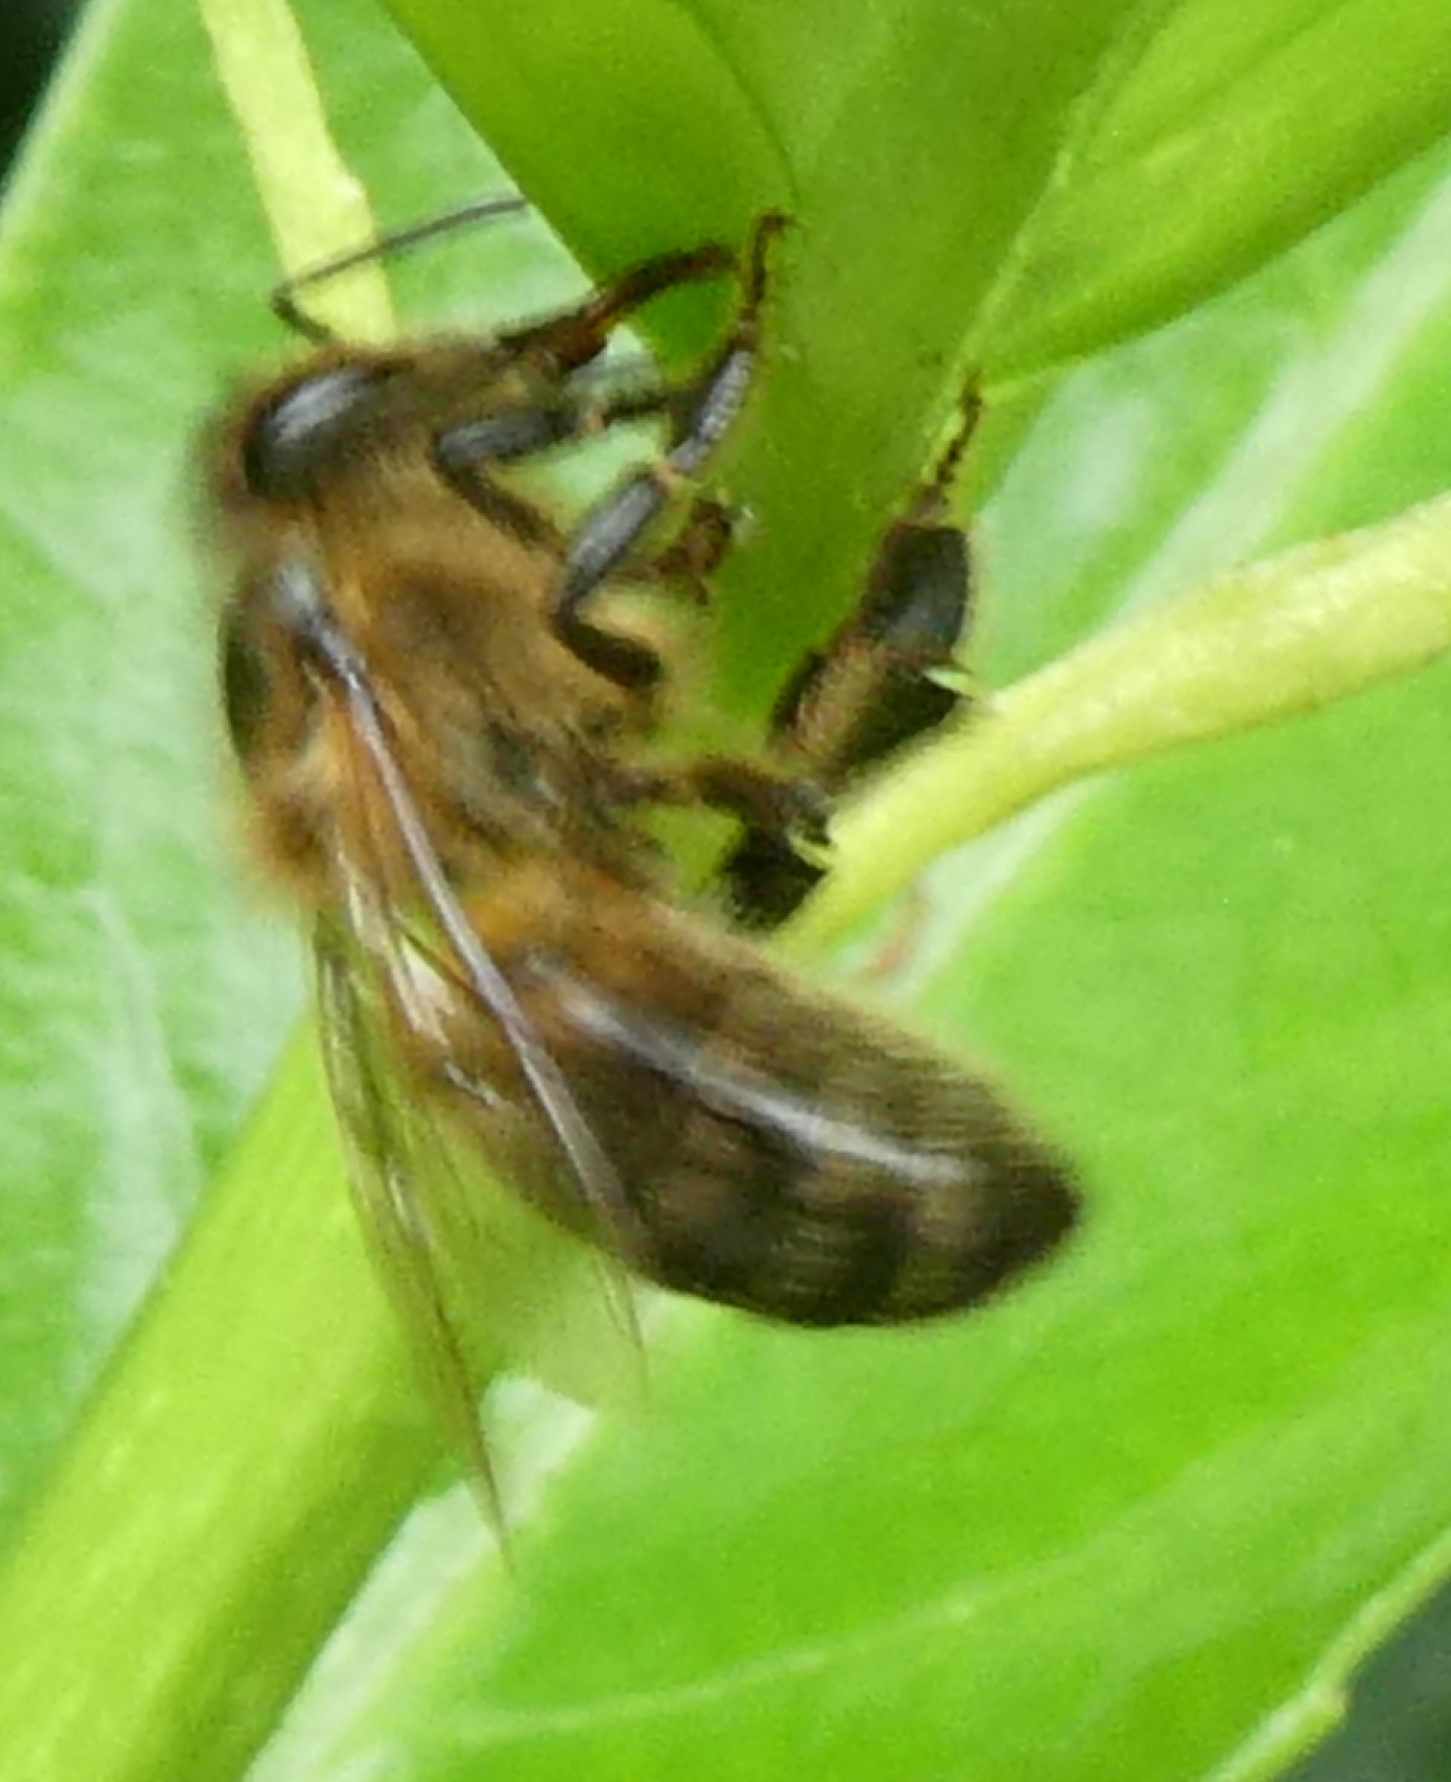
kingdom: Animalia
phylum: Arthropoda
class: Insecta
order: Hymenoptera
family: Apidae
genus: Apis
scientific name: Apis mellifera
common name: Honey bee
